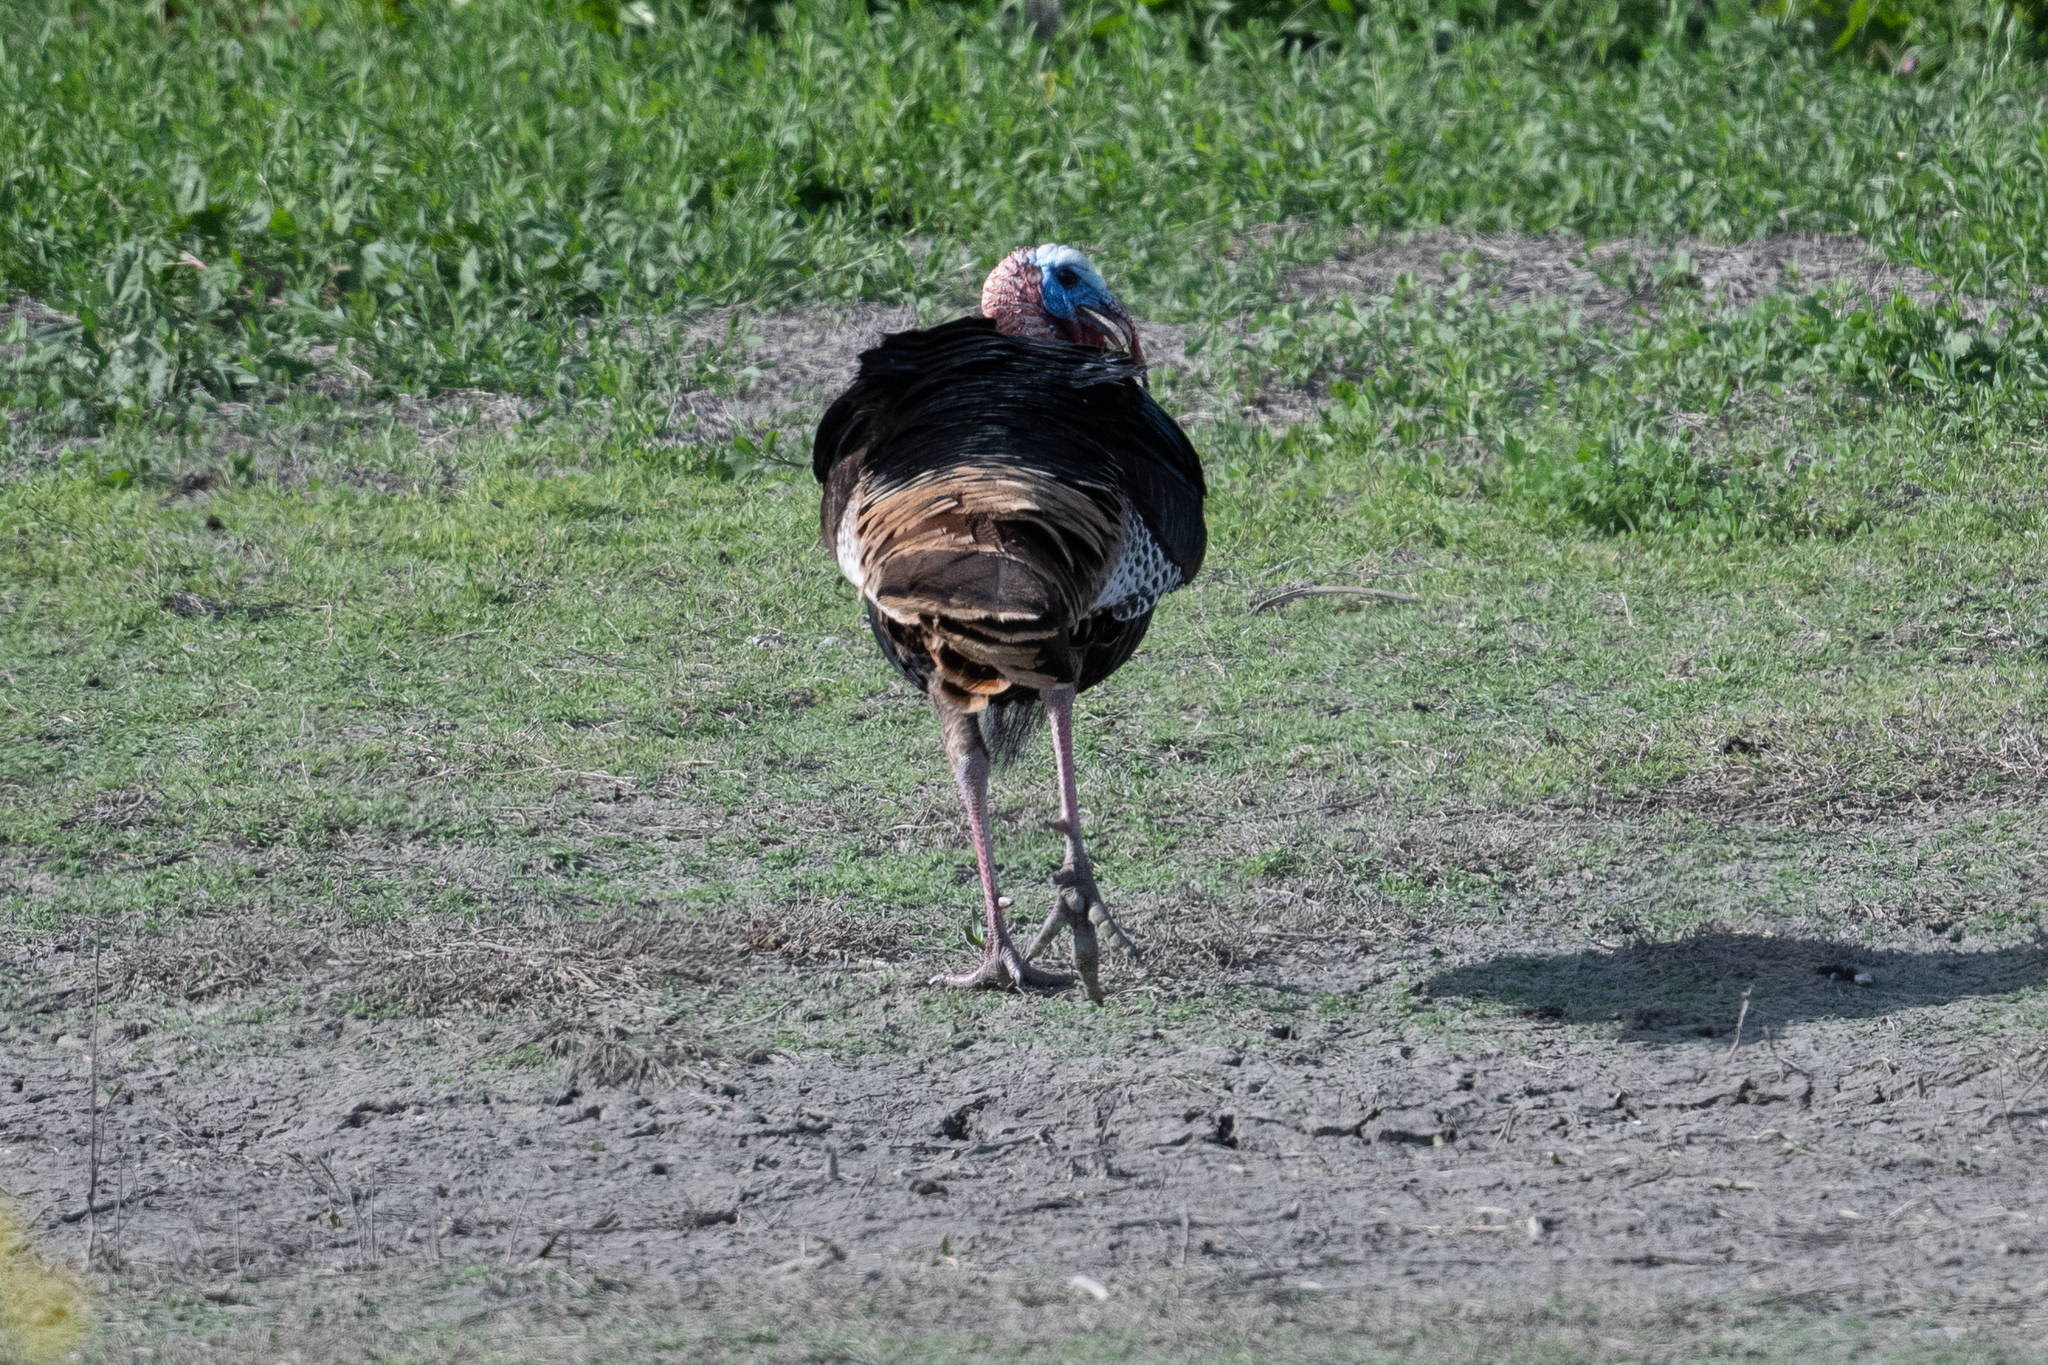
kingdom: Animalia
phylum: Chordata
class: Aves
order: Galliformes
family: Phasianidae
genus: Meleagris
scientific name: Meleagris gallopavo
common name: Wild turkey
